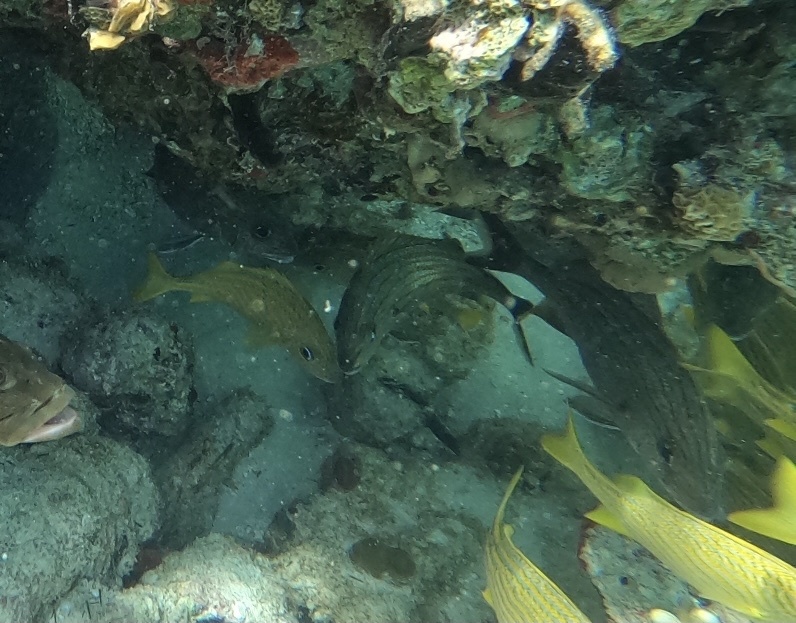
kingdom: Animalia
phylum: Chordata
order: Perciformes
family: Haemulidae
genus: Haemulon
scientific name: Haemulon sciurus
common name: Bluestriped grunt
